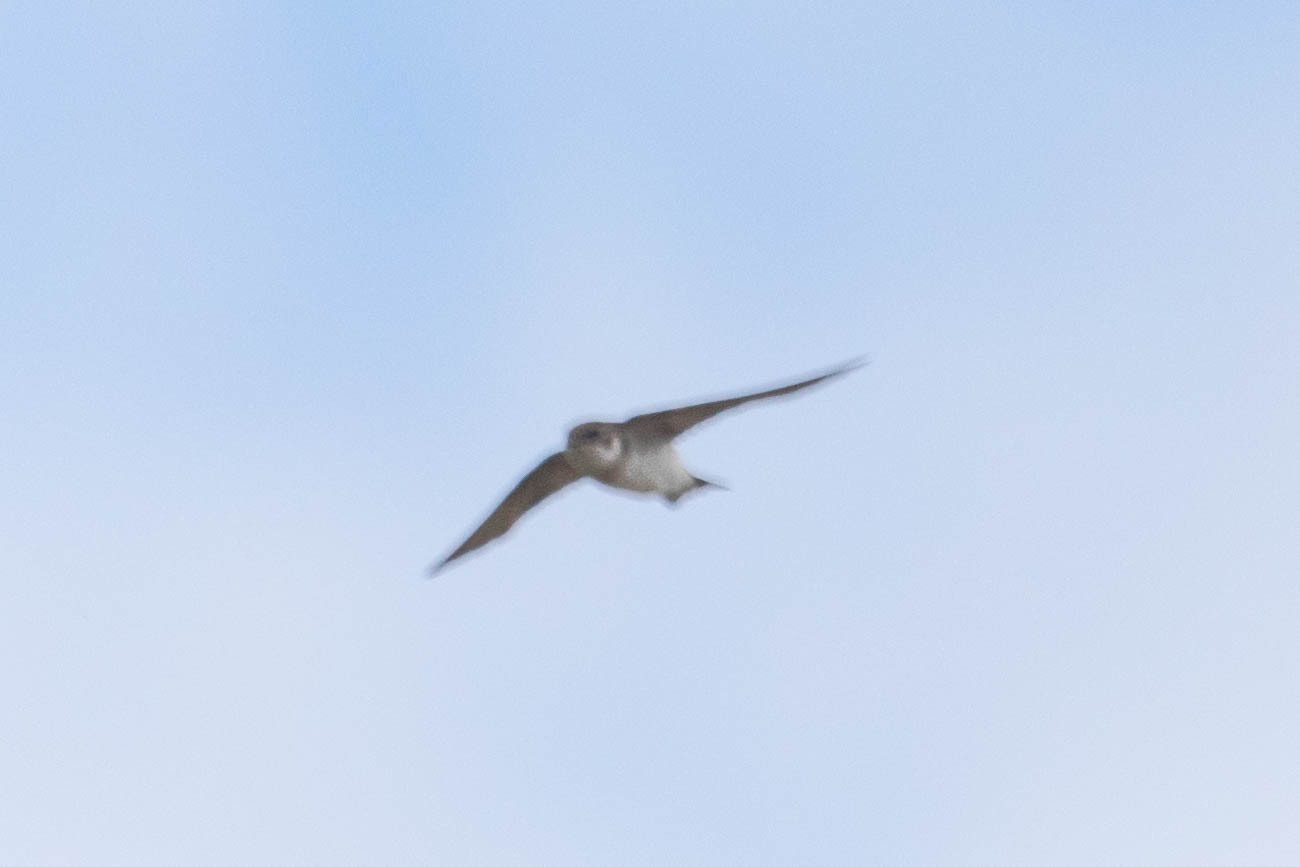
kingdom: Animalia
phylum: Chordata
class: Aves
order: Passeriformes
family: Hirundinidae
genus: Riparia
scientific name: Riparia riparia
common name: Sand martin
